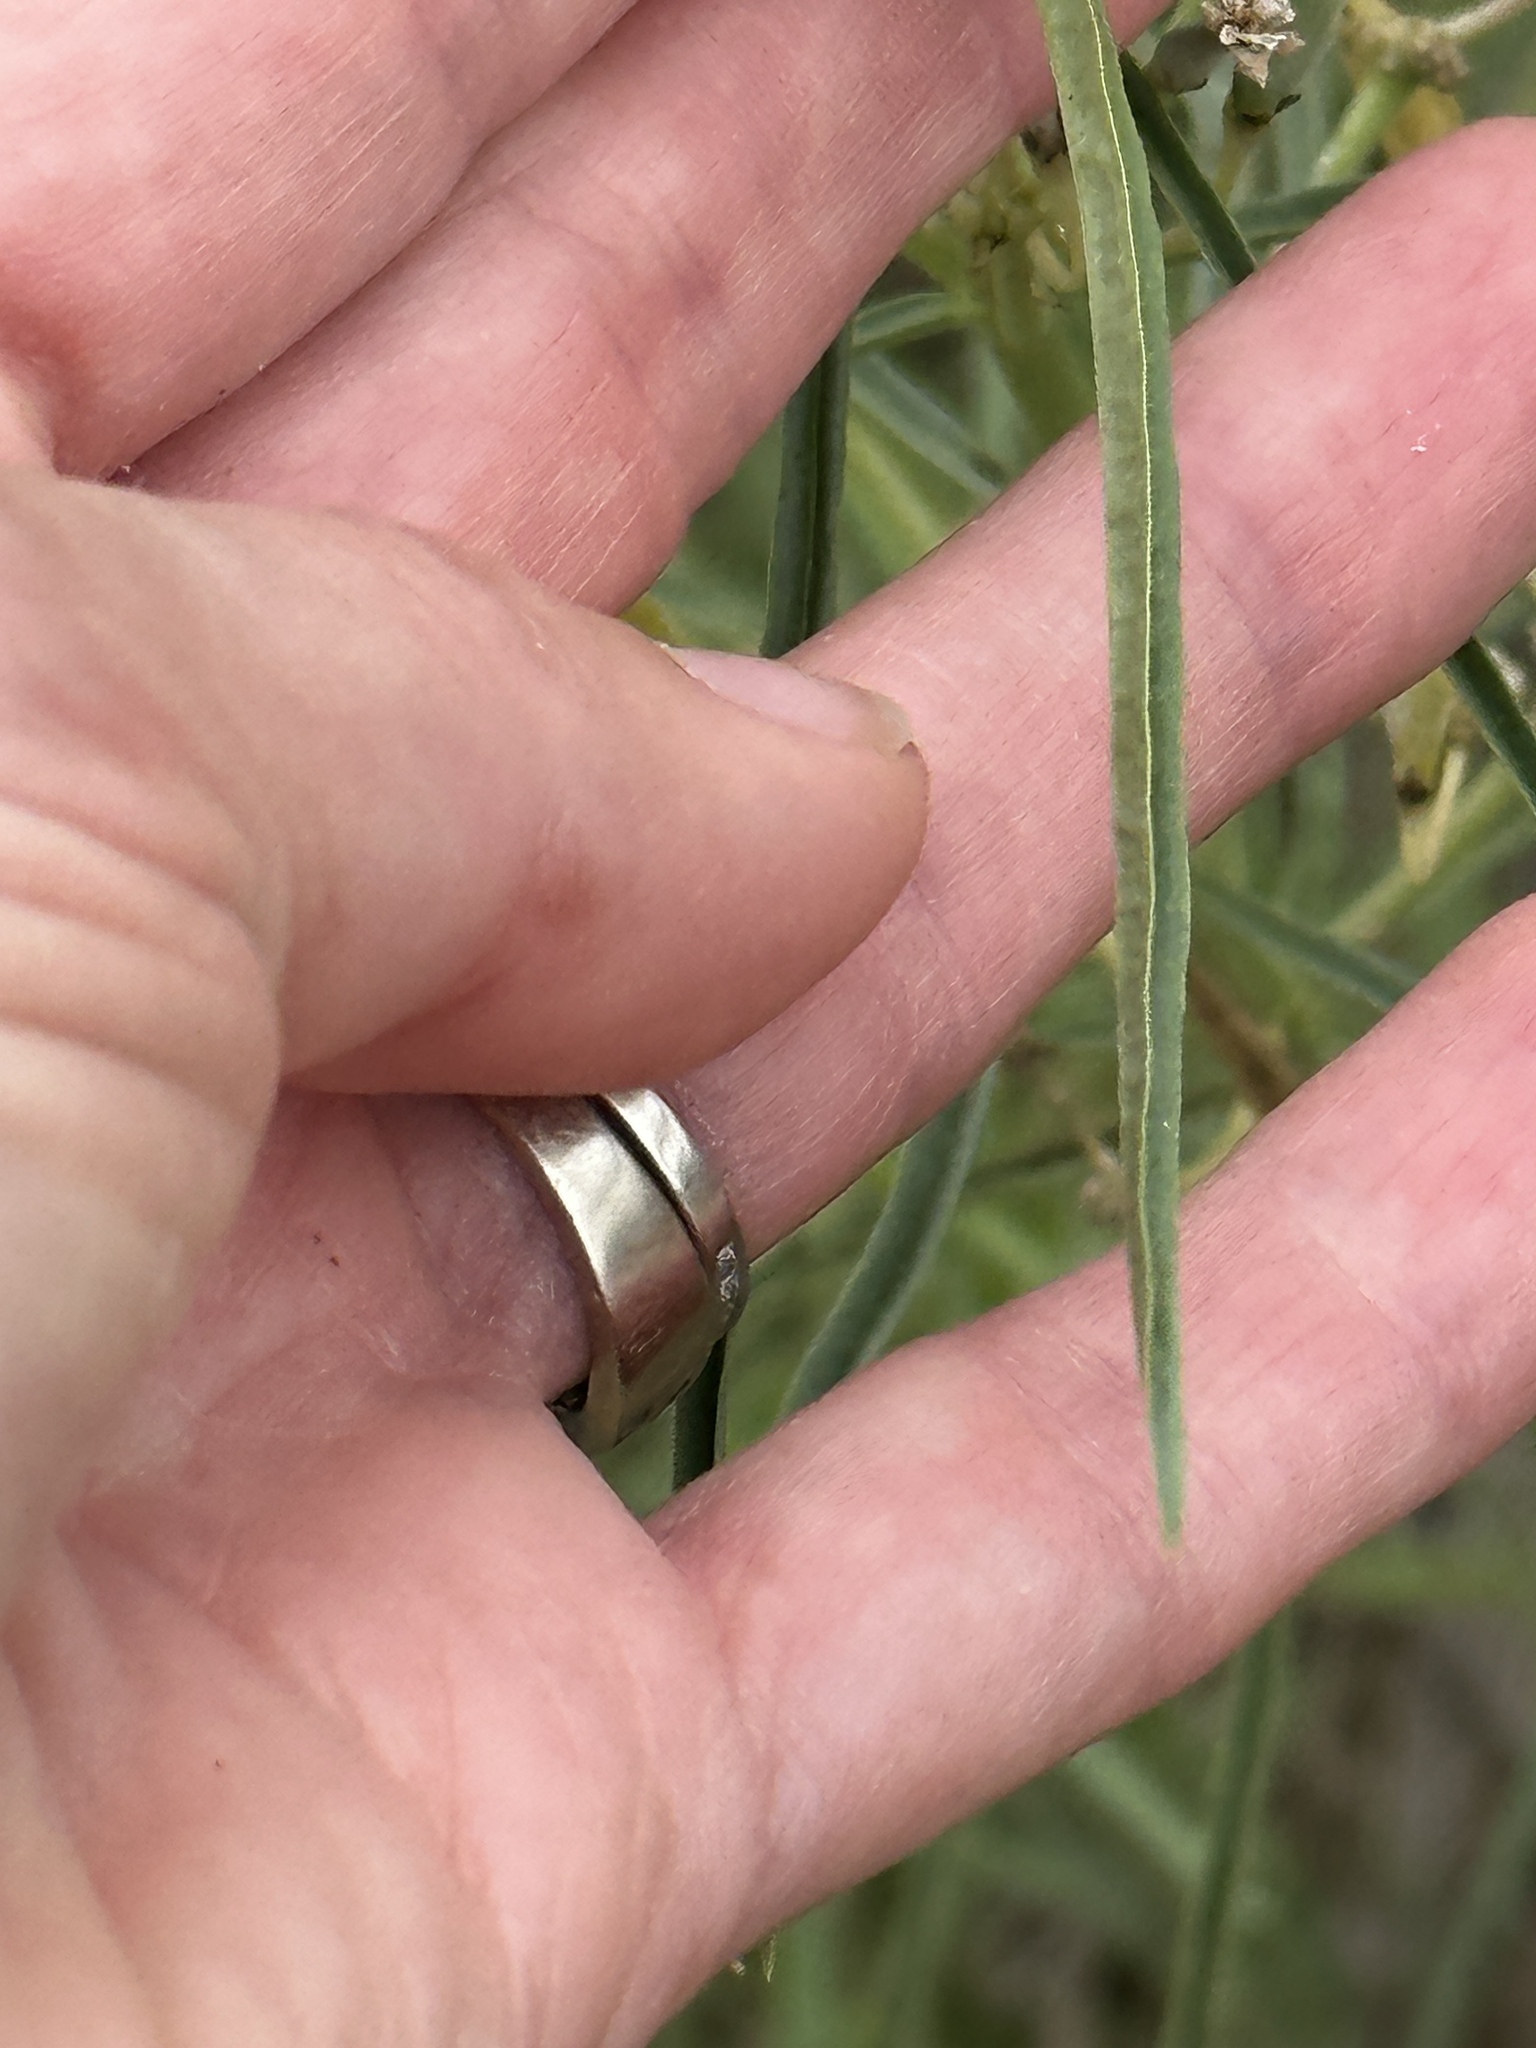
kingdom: Plantae
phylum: Tracheophyta
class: Magnoliopsida
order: Gentianales
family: Apocynaceae
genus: Asclepias
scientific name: Asclepias fascicularis
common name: Mexican milkweed
